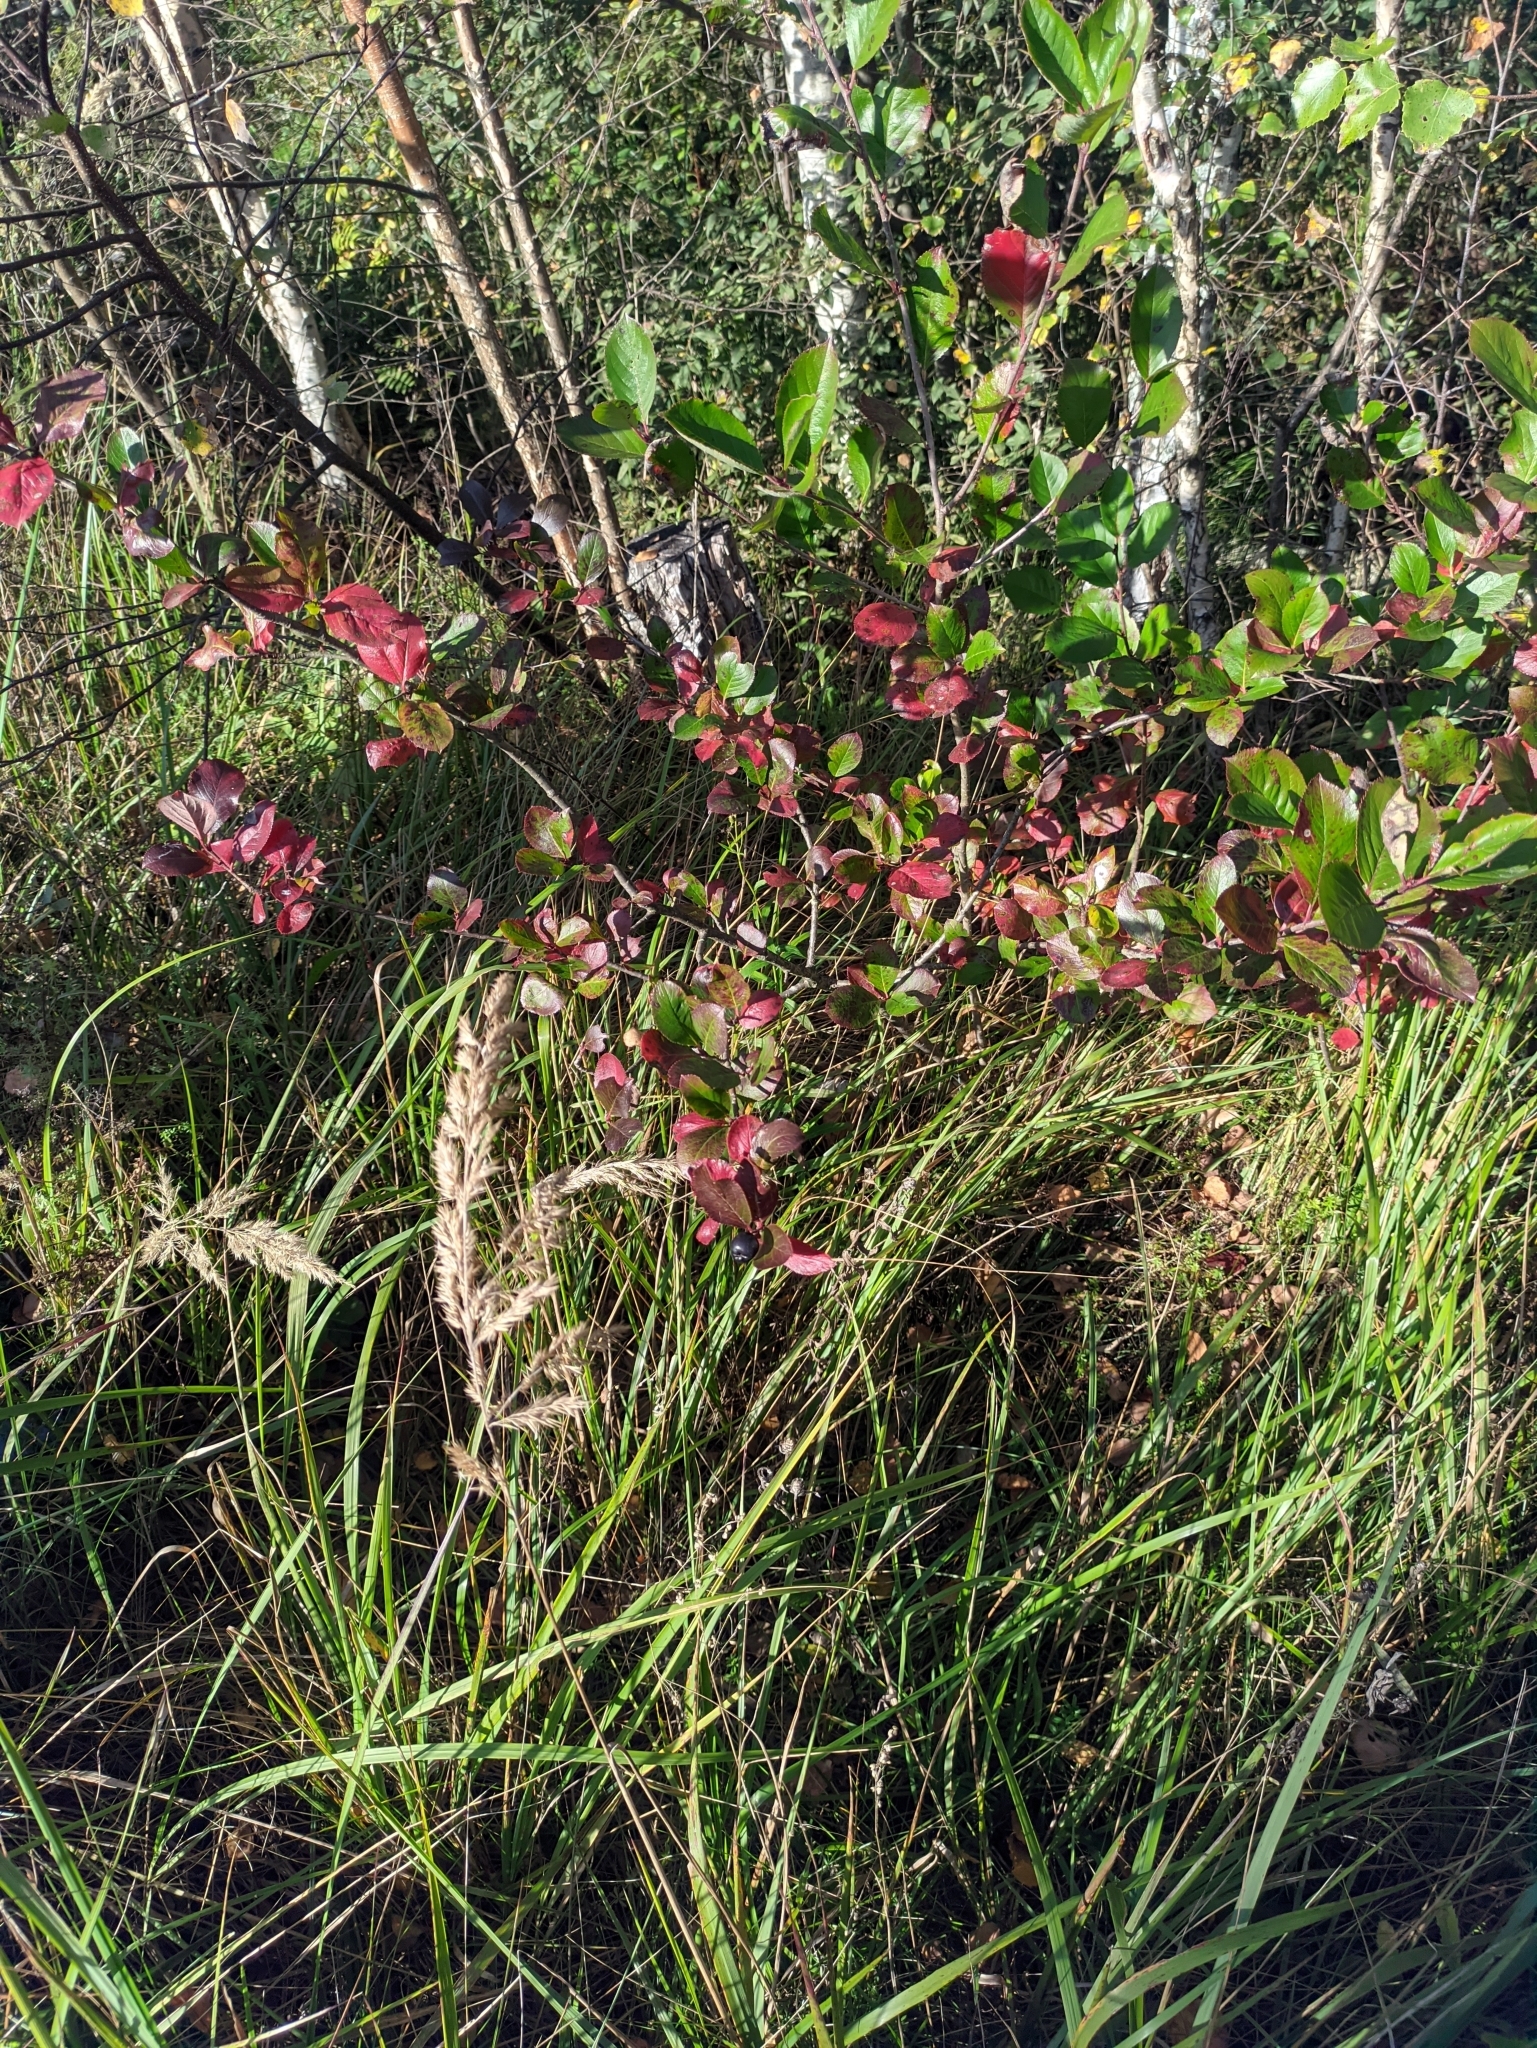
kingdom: Plantae
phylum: Tracheophyta
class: Magnoliopsida
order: Rosales
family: Rosaceae
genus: Sorbaronia
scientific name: Sorbaronia arsenii
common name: Arsène's mountain-ash
